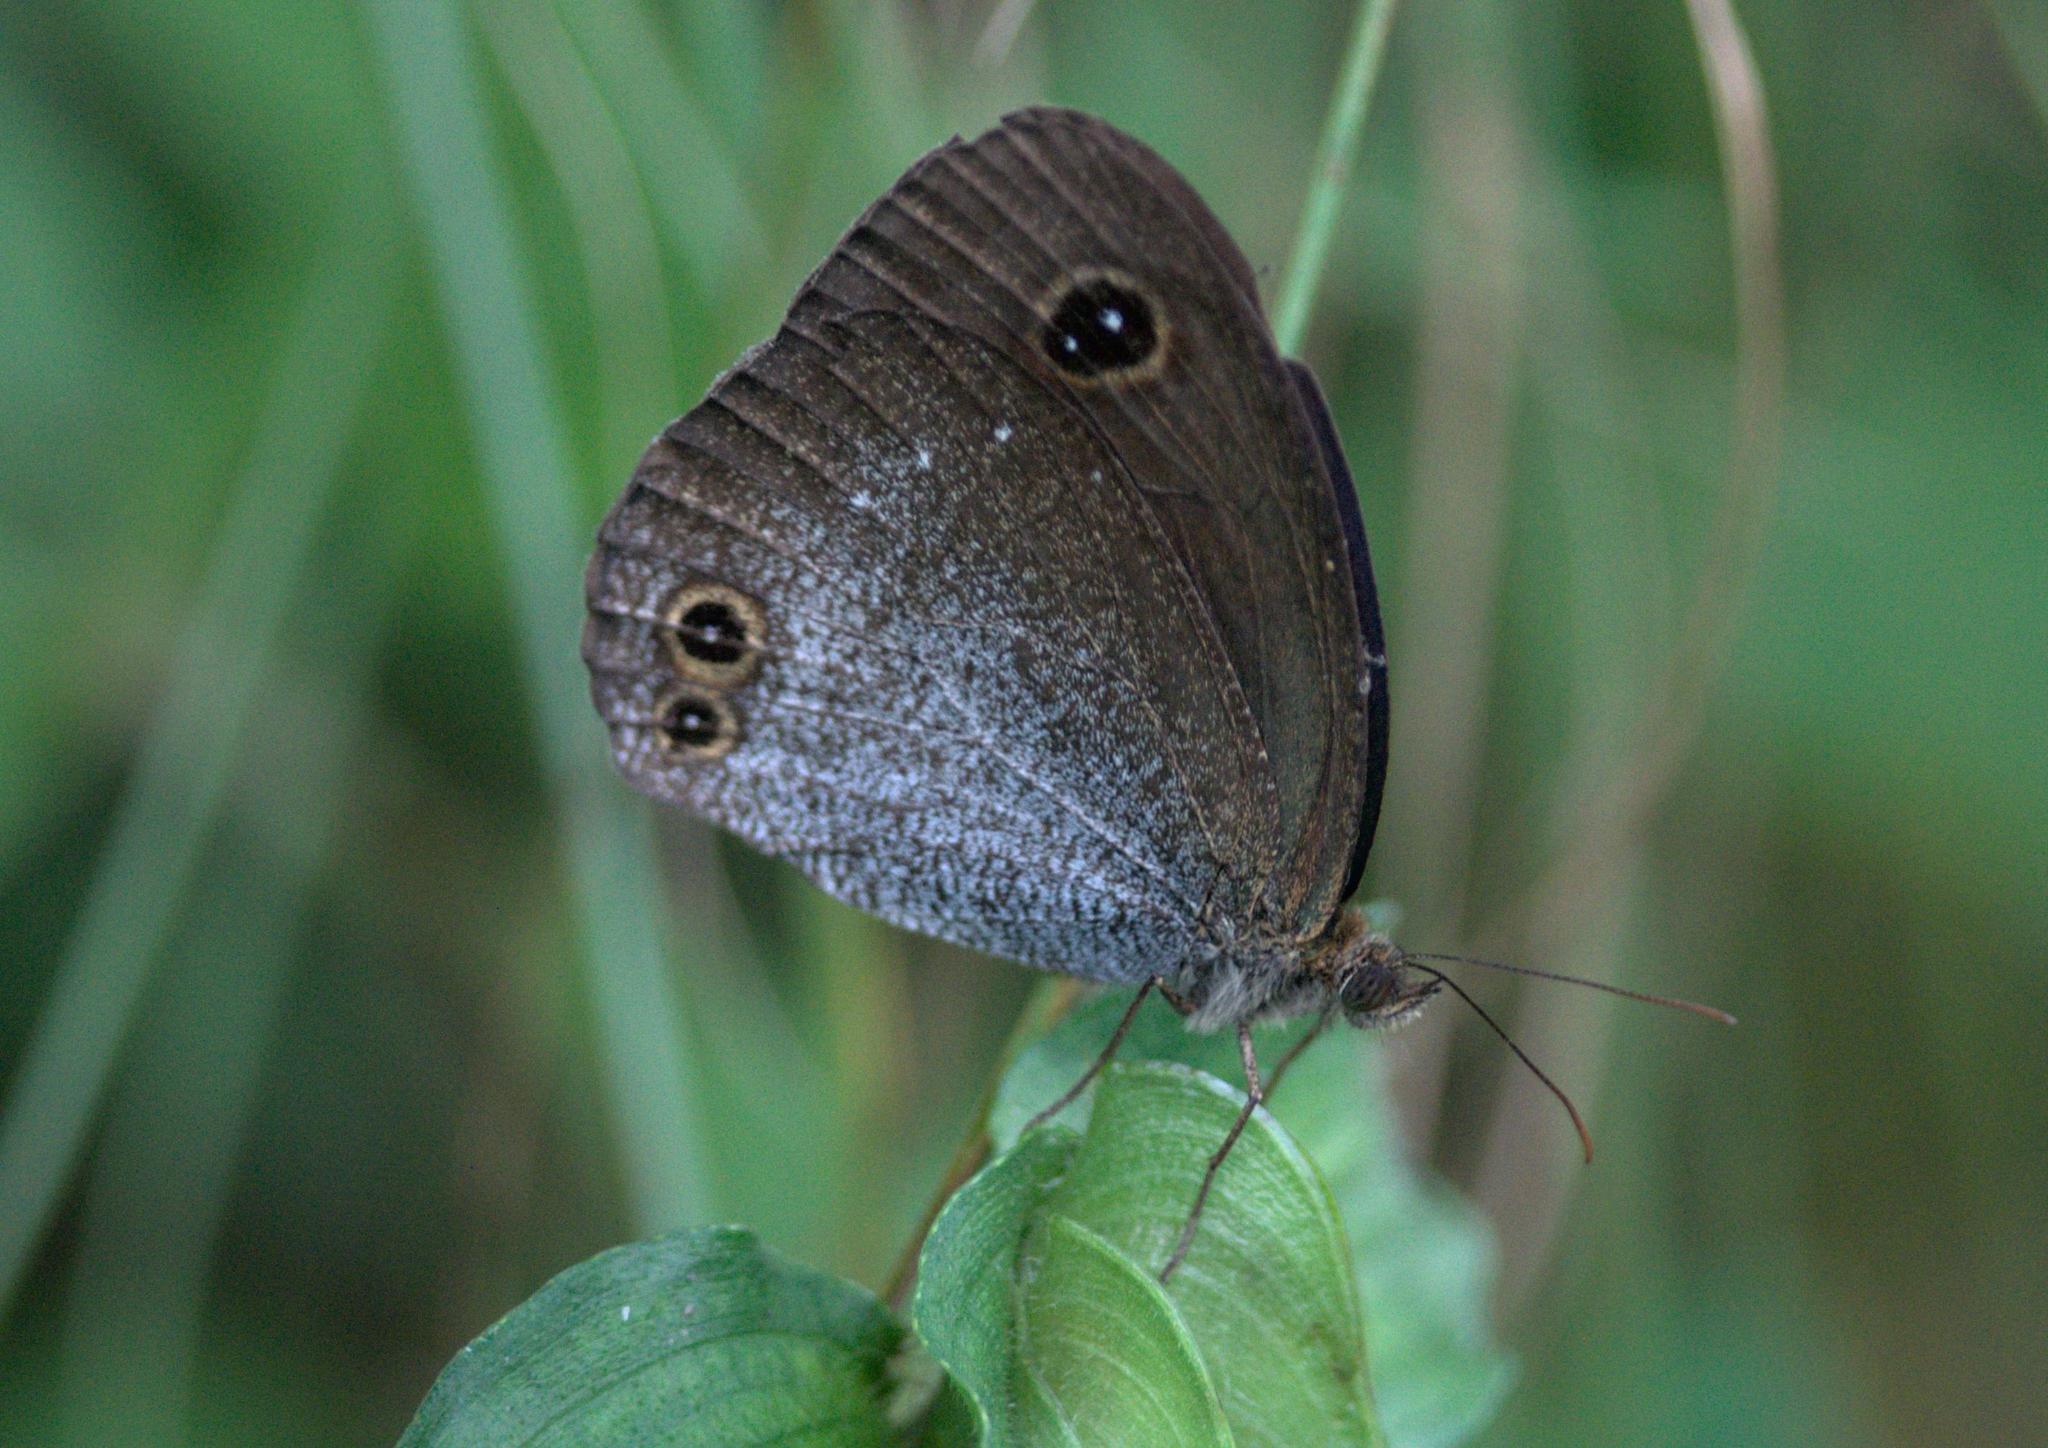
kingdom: Animalia
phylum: Arthropoda
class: Insecta
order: Lepidoptera
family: Nymphalidae
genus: Callerebia
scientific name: Callerebia scanda
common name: Pallid argus
